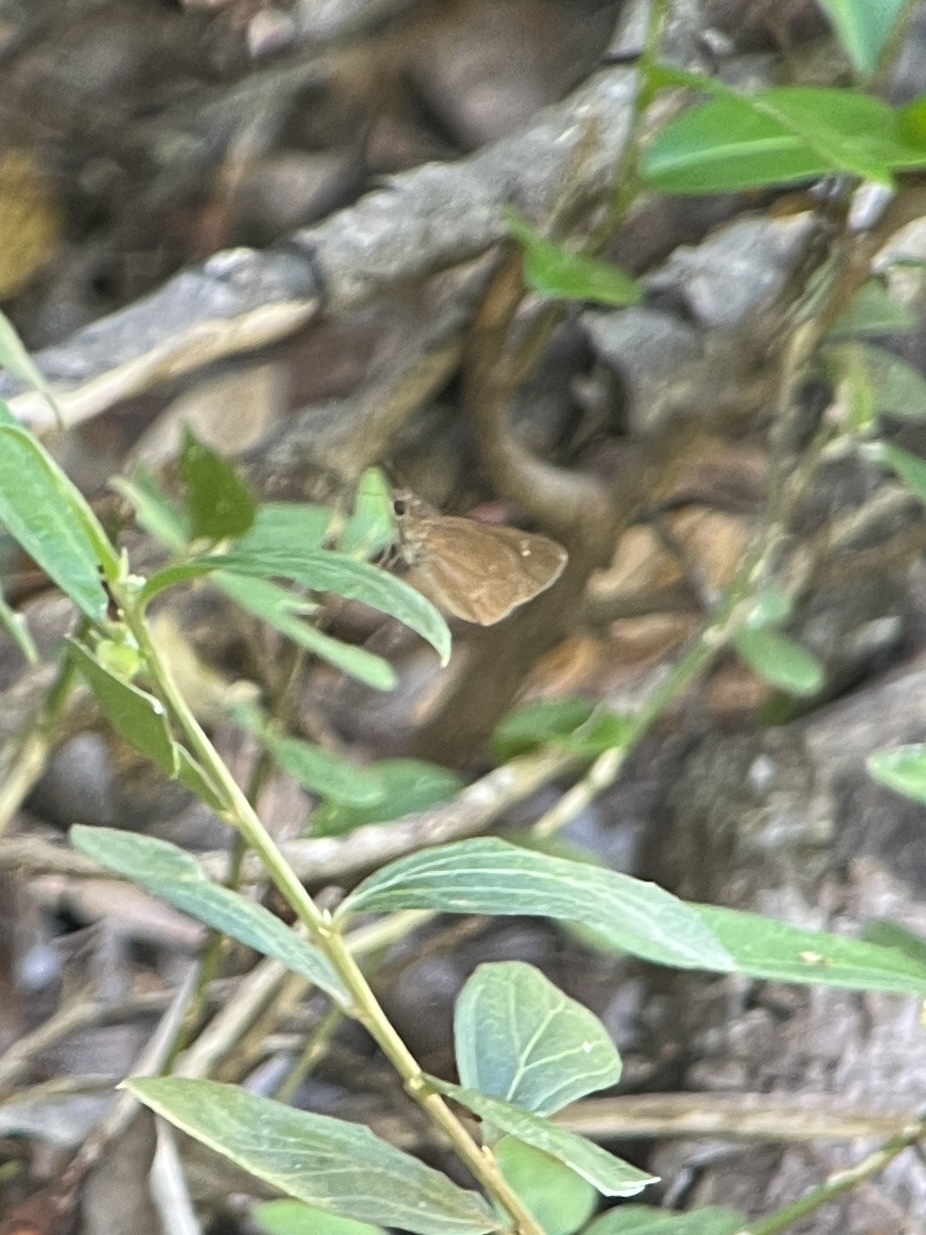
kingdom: Animalia
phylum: Arthropoda
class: Insecta
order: Lepidoptera
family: Hesperiidae
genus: Cymaenes
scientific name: Cymaenes tripunctus
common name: Dingy dotted skipper
